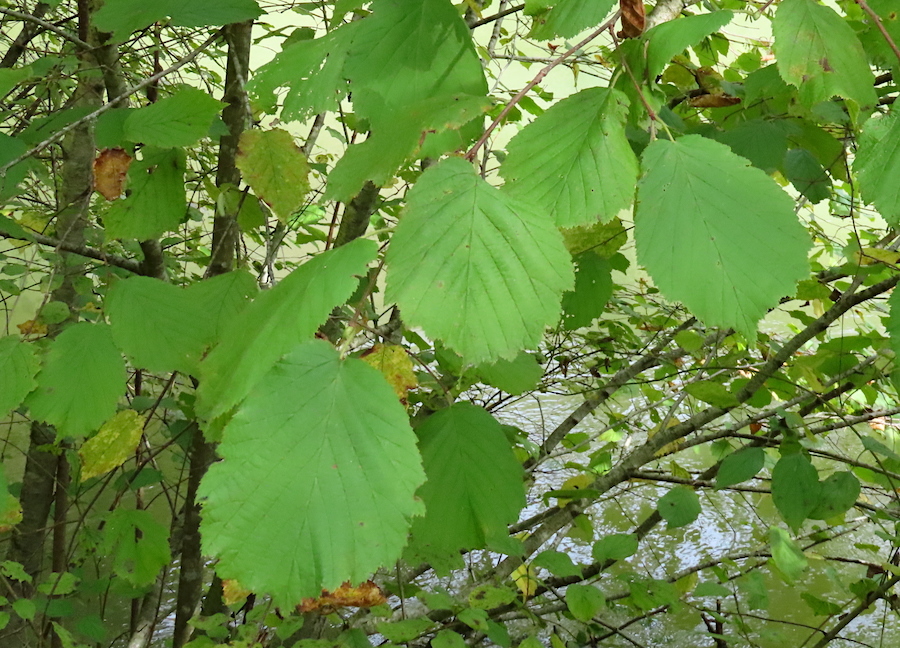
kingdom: Plantae
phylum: Tracheophyta
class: Magnoliopsida
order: Fagales
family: Betulaceae
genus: Corylus
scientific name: Corylus avellana
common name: European hazel
